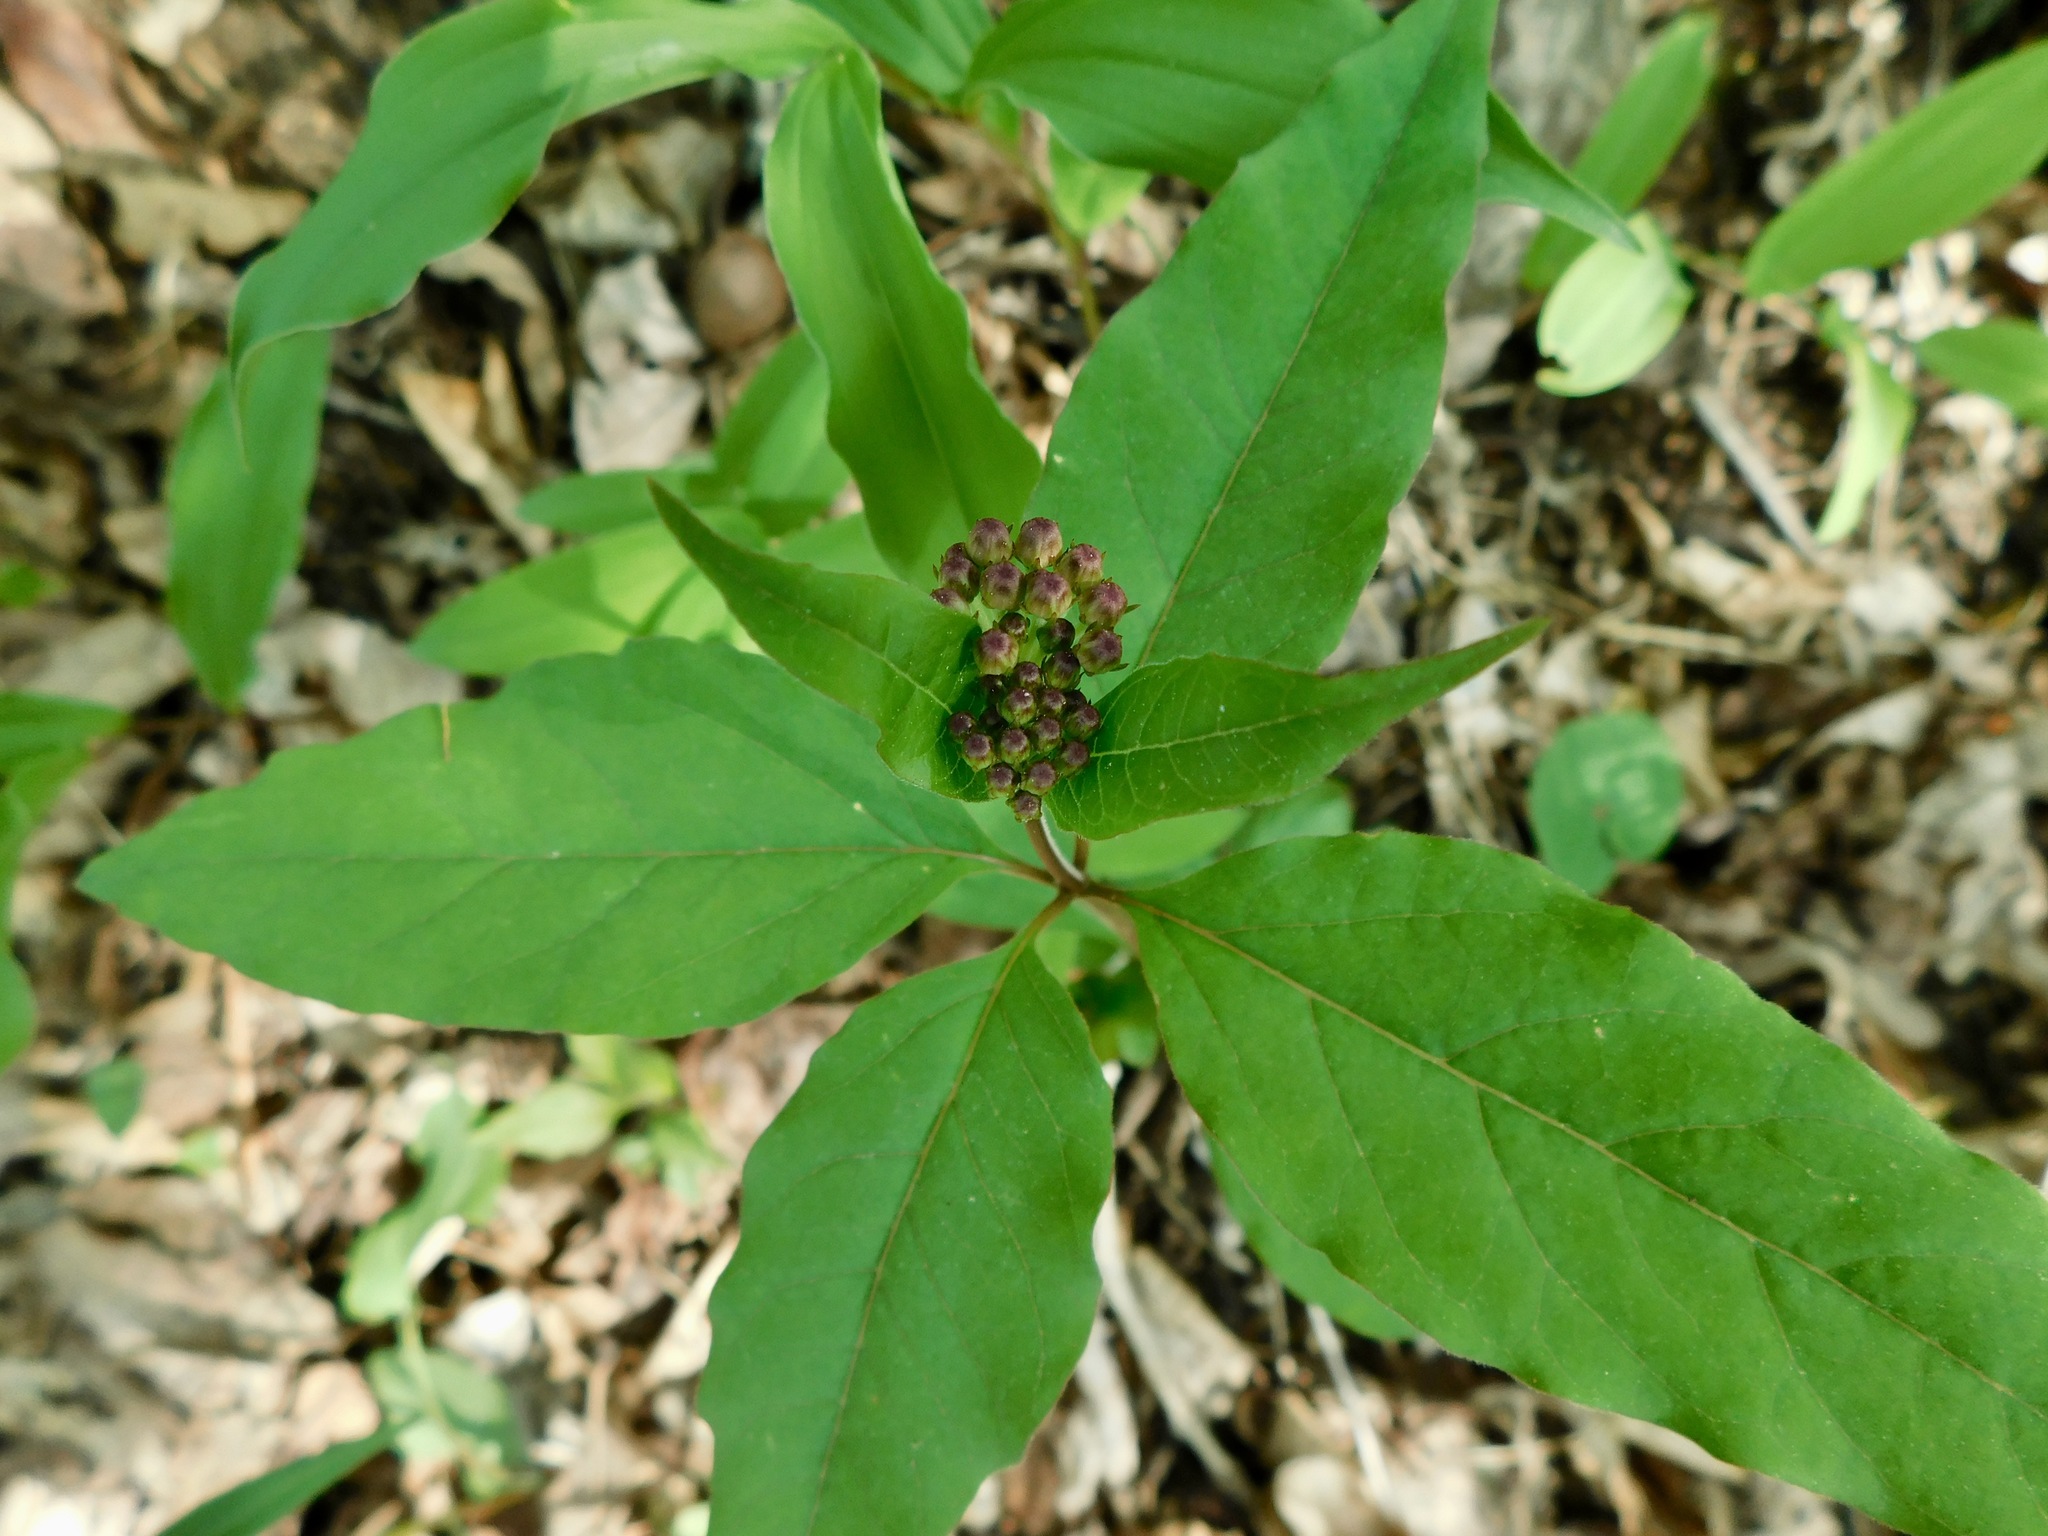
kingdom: Plantae
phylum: Tracheophyta
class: Magnoliopsida
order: Gentianales
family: Apocynaceae
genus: Asclepias
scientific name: Asclepias quadrifolia
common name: Whorled milkweed
